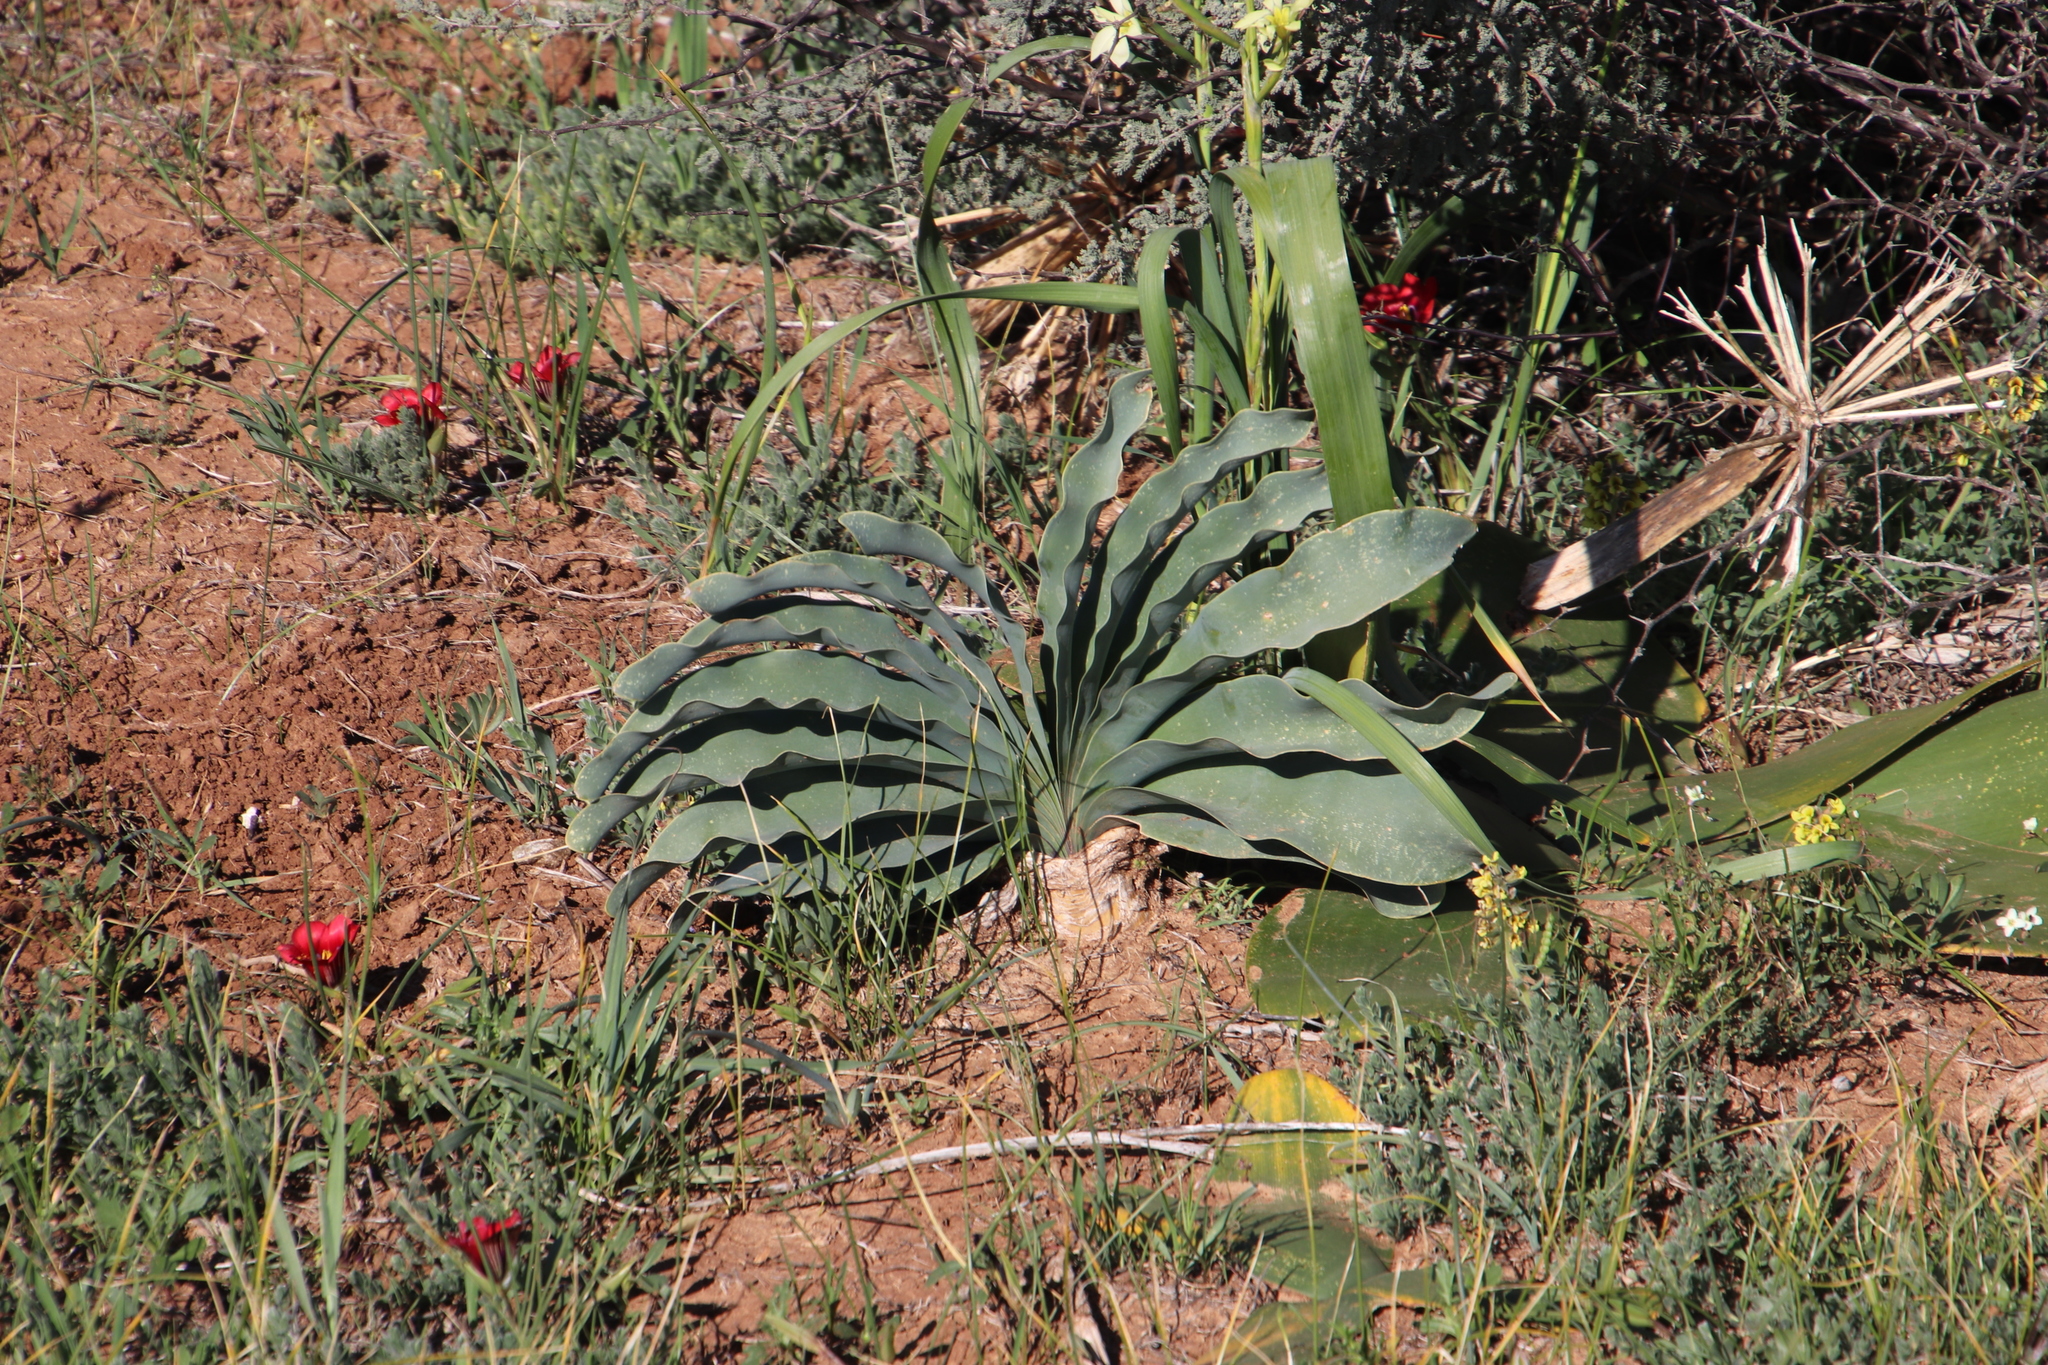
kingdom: Plantae
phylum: Tracheophyta
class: Liliopsida
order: Asparagales
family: Iridaceae
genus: Romulea
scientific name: Romulea monadelpha
